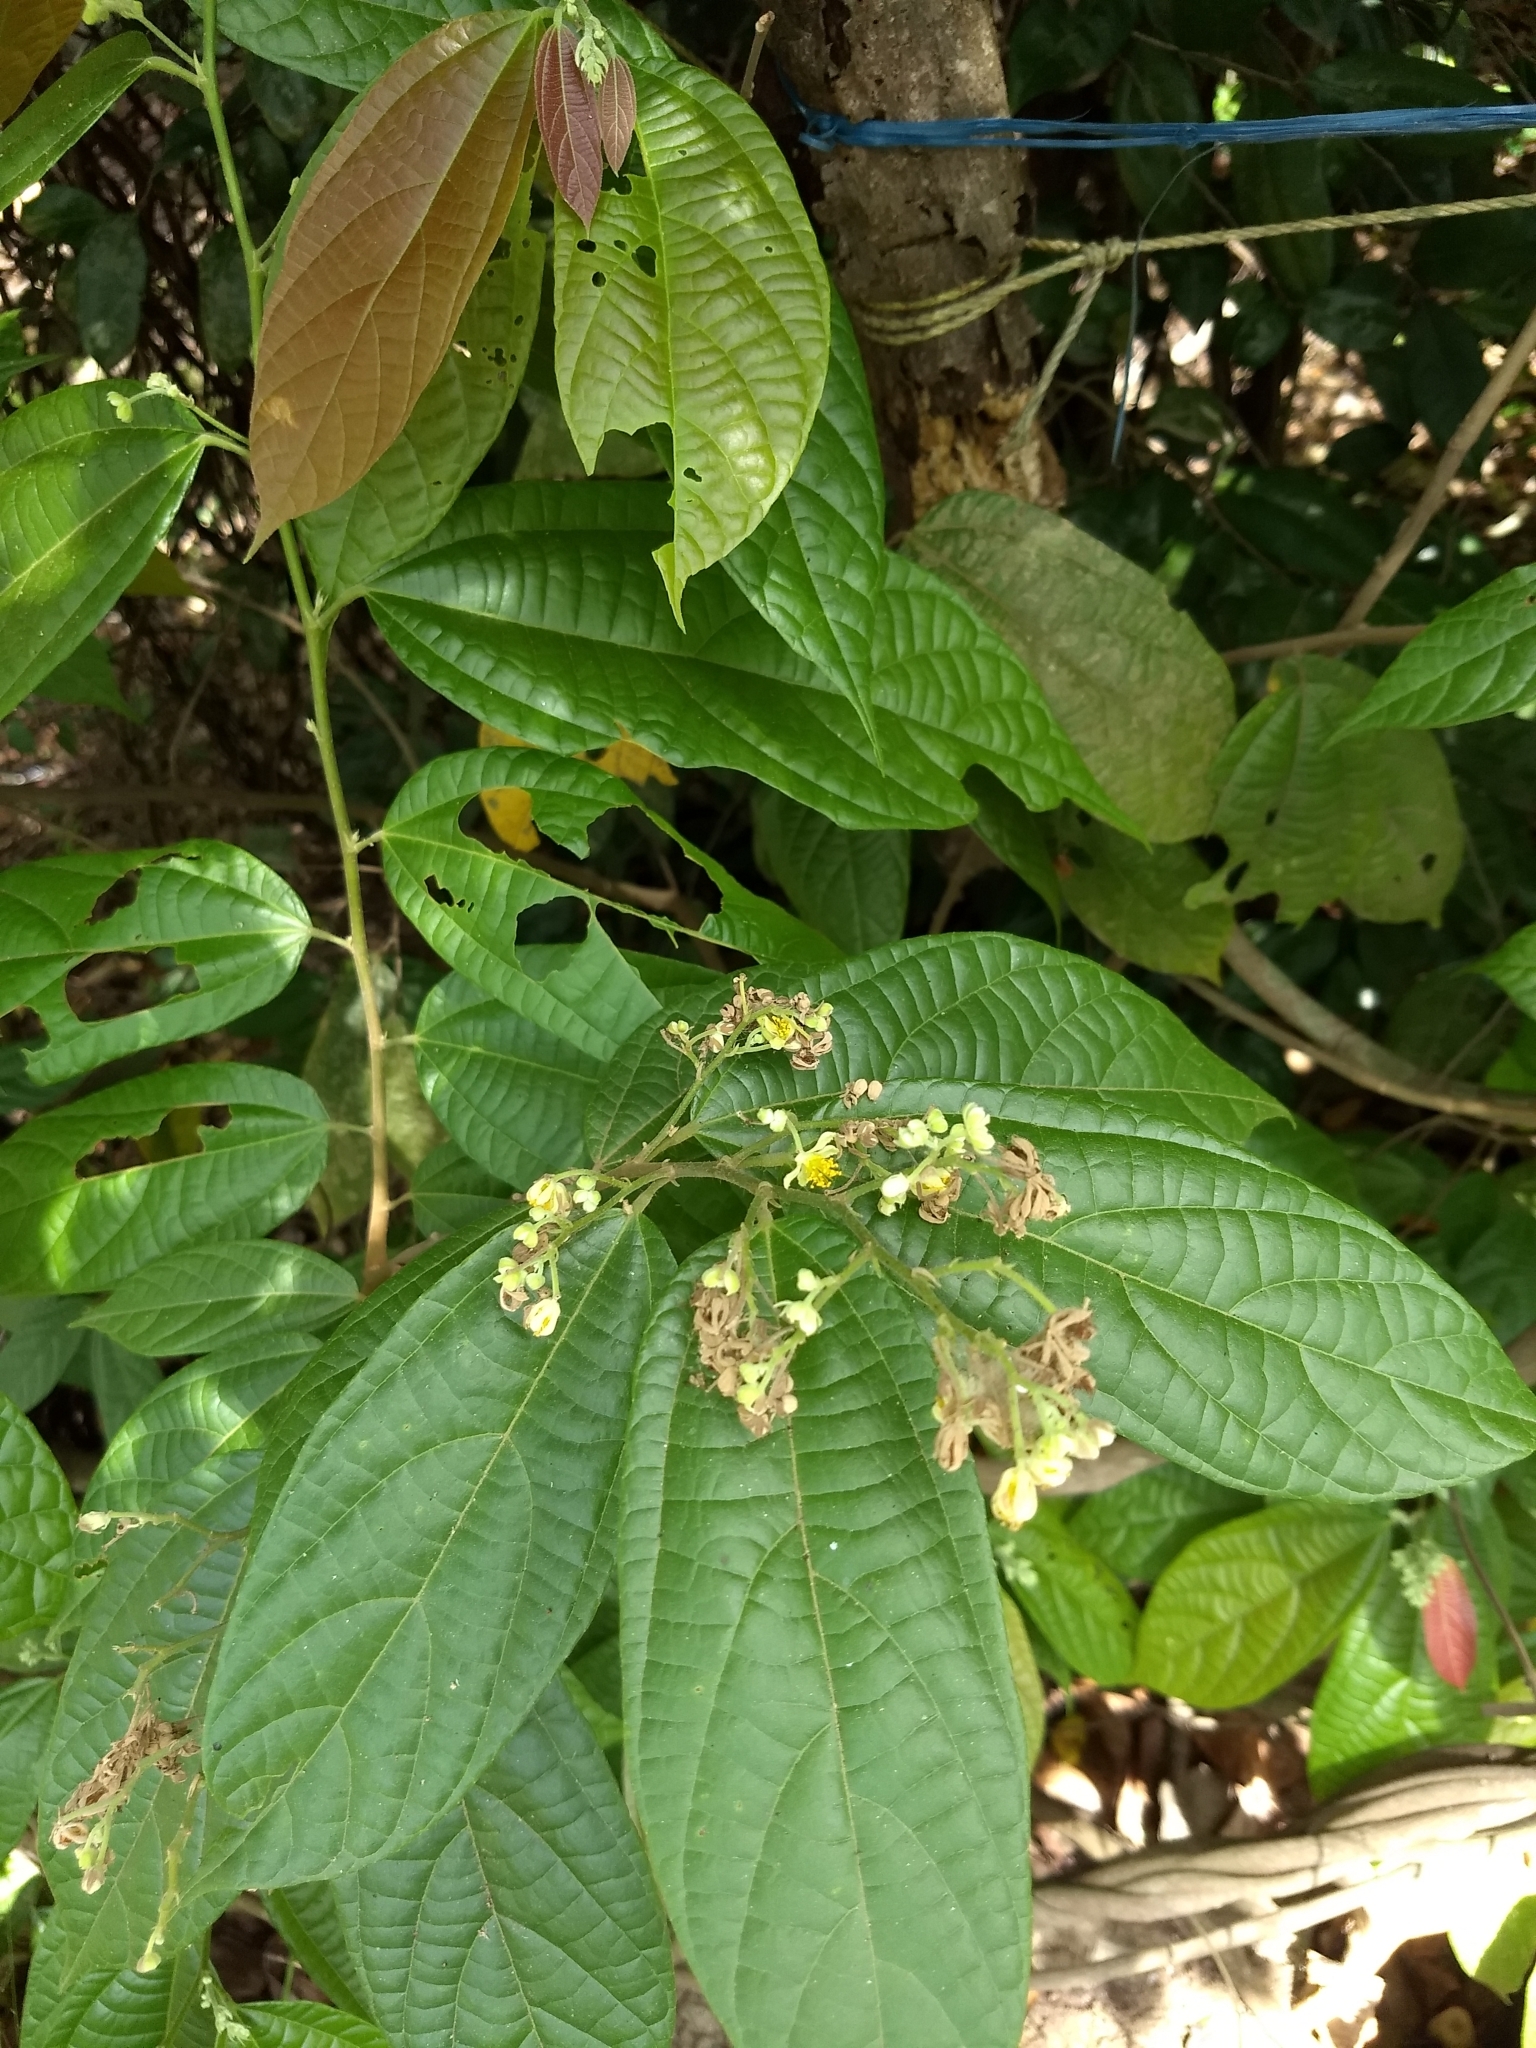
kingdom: Plantae
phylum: Tracheophyta
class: Magnoliopsida
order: Malvales
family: Malvaceae
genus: Microcos
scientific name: Microcos paniculata
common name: Microcos
